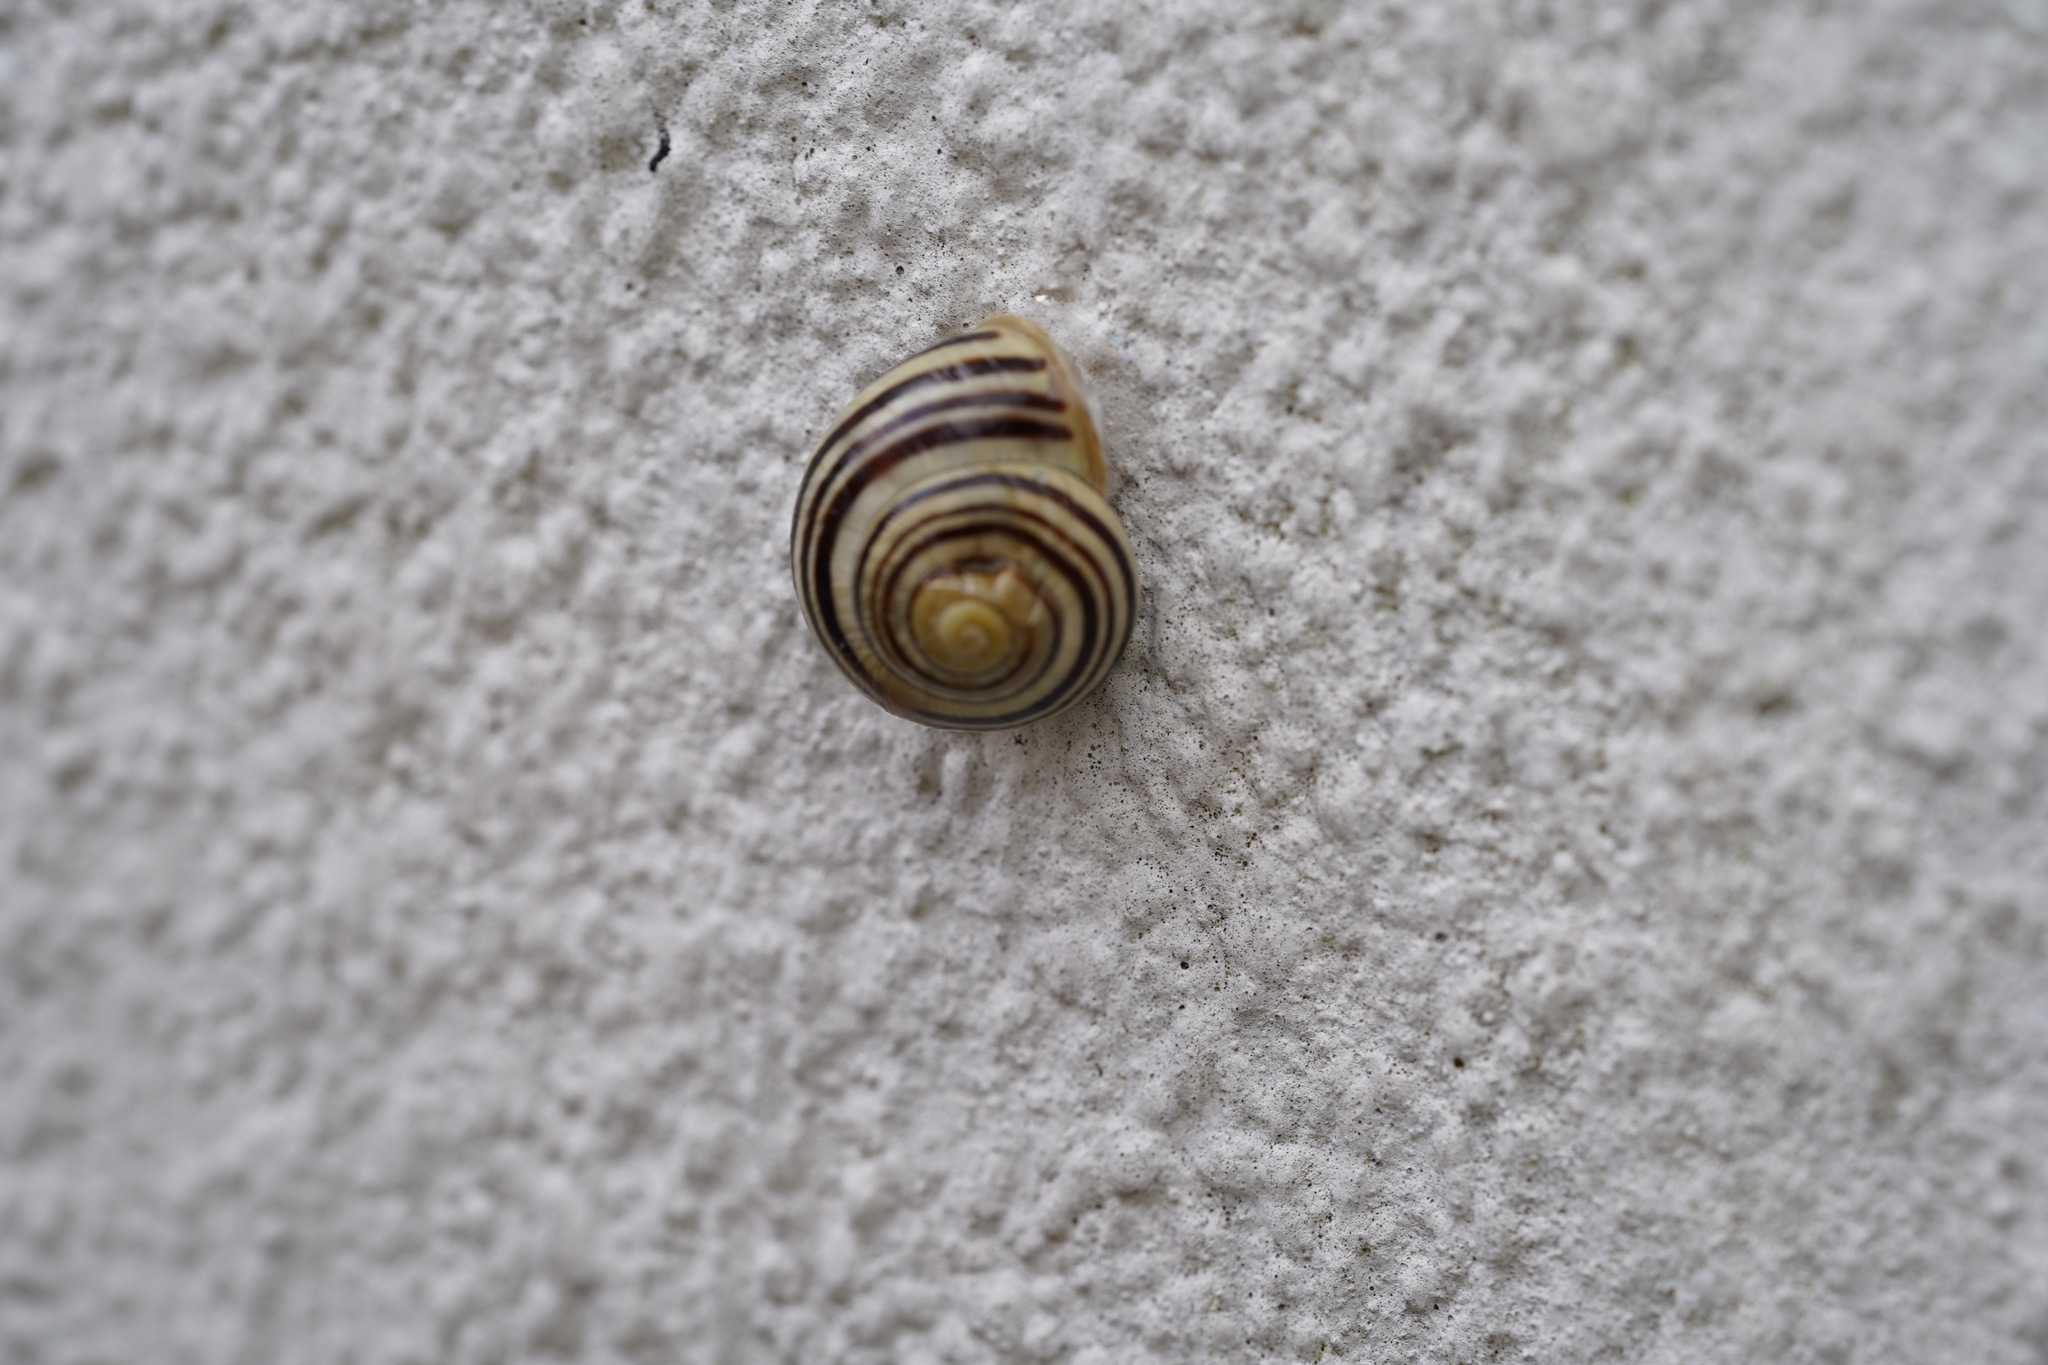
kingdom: Animalia
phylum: Mollusca
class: Gastropoda
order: Stylommatophora
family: Helicidae
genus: Cepaea
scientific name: Cepaea hortensis
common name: White-lip gardensnail
